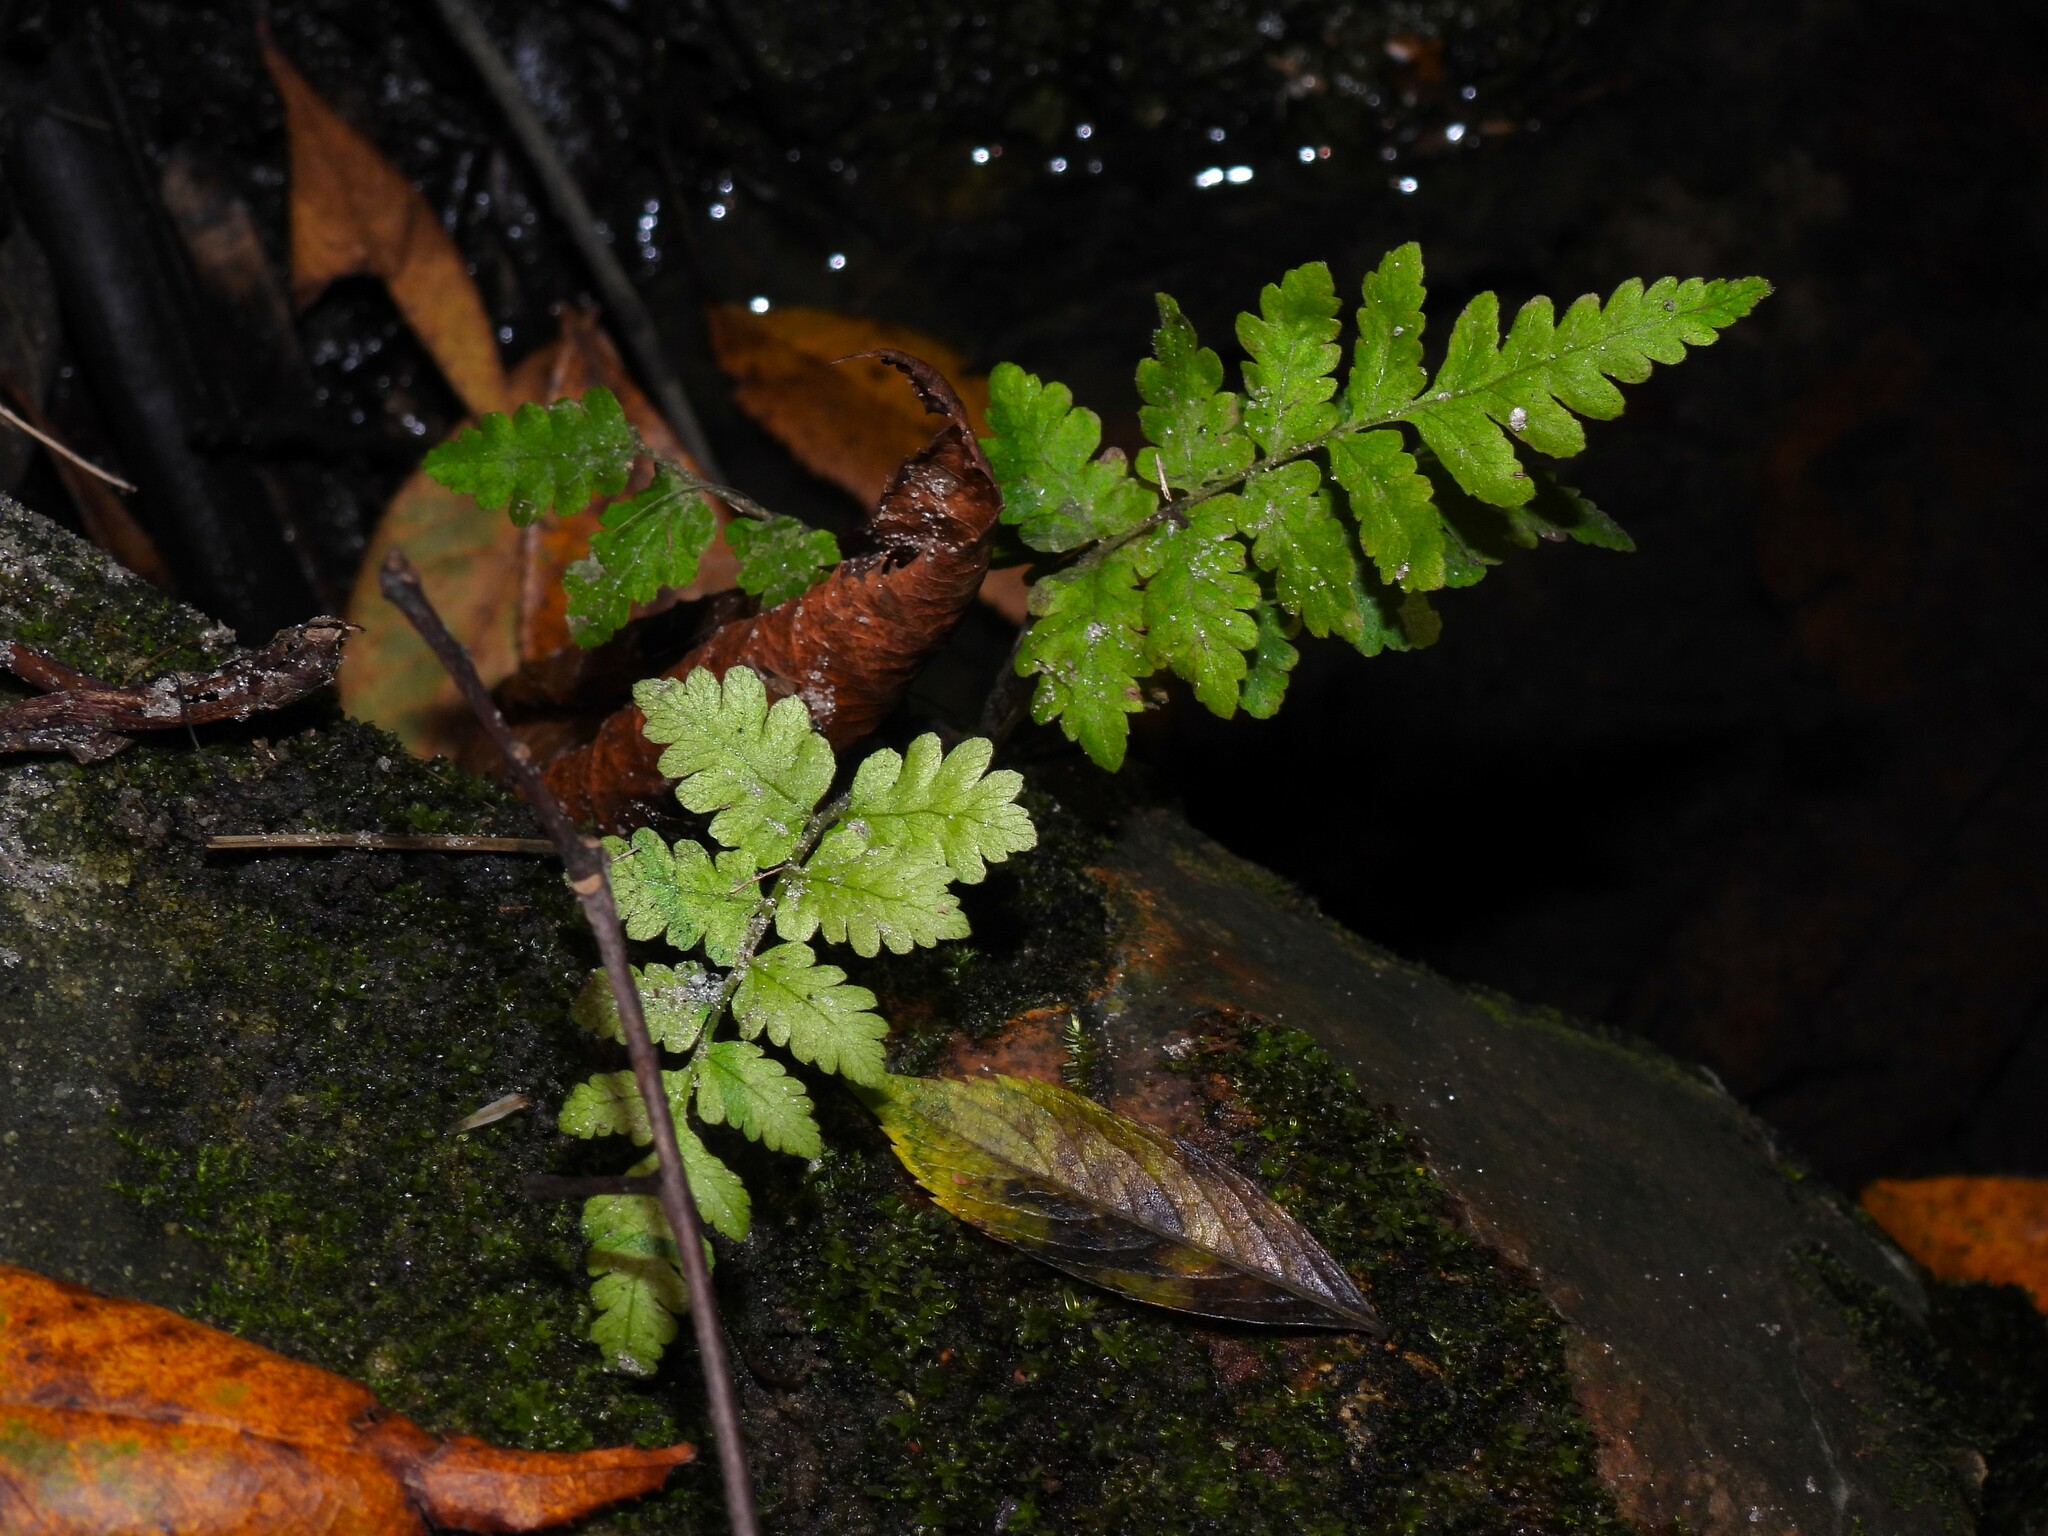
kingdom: Plantae
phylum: Tracheophyta
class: Polypodiopsida
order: Polypodiales
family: Thelypteridaceae
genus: Christella
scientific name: Christella dentata
